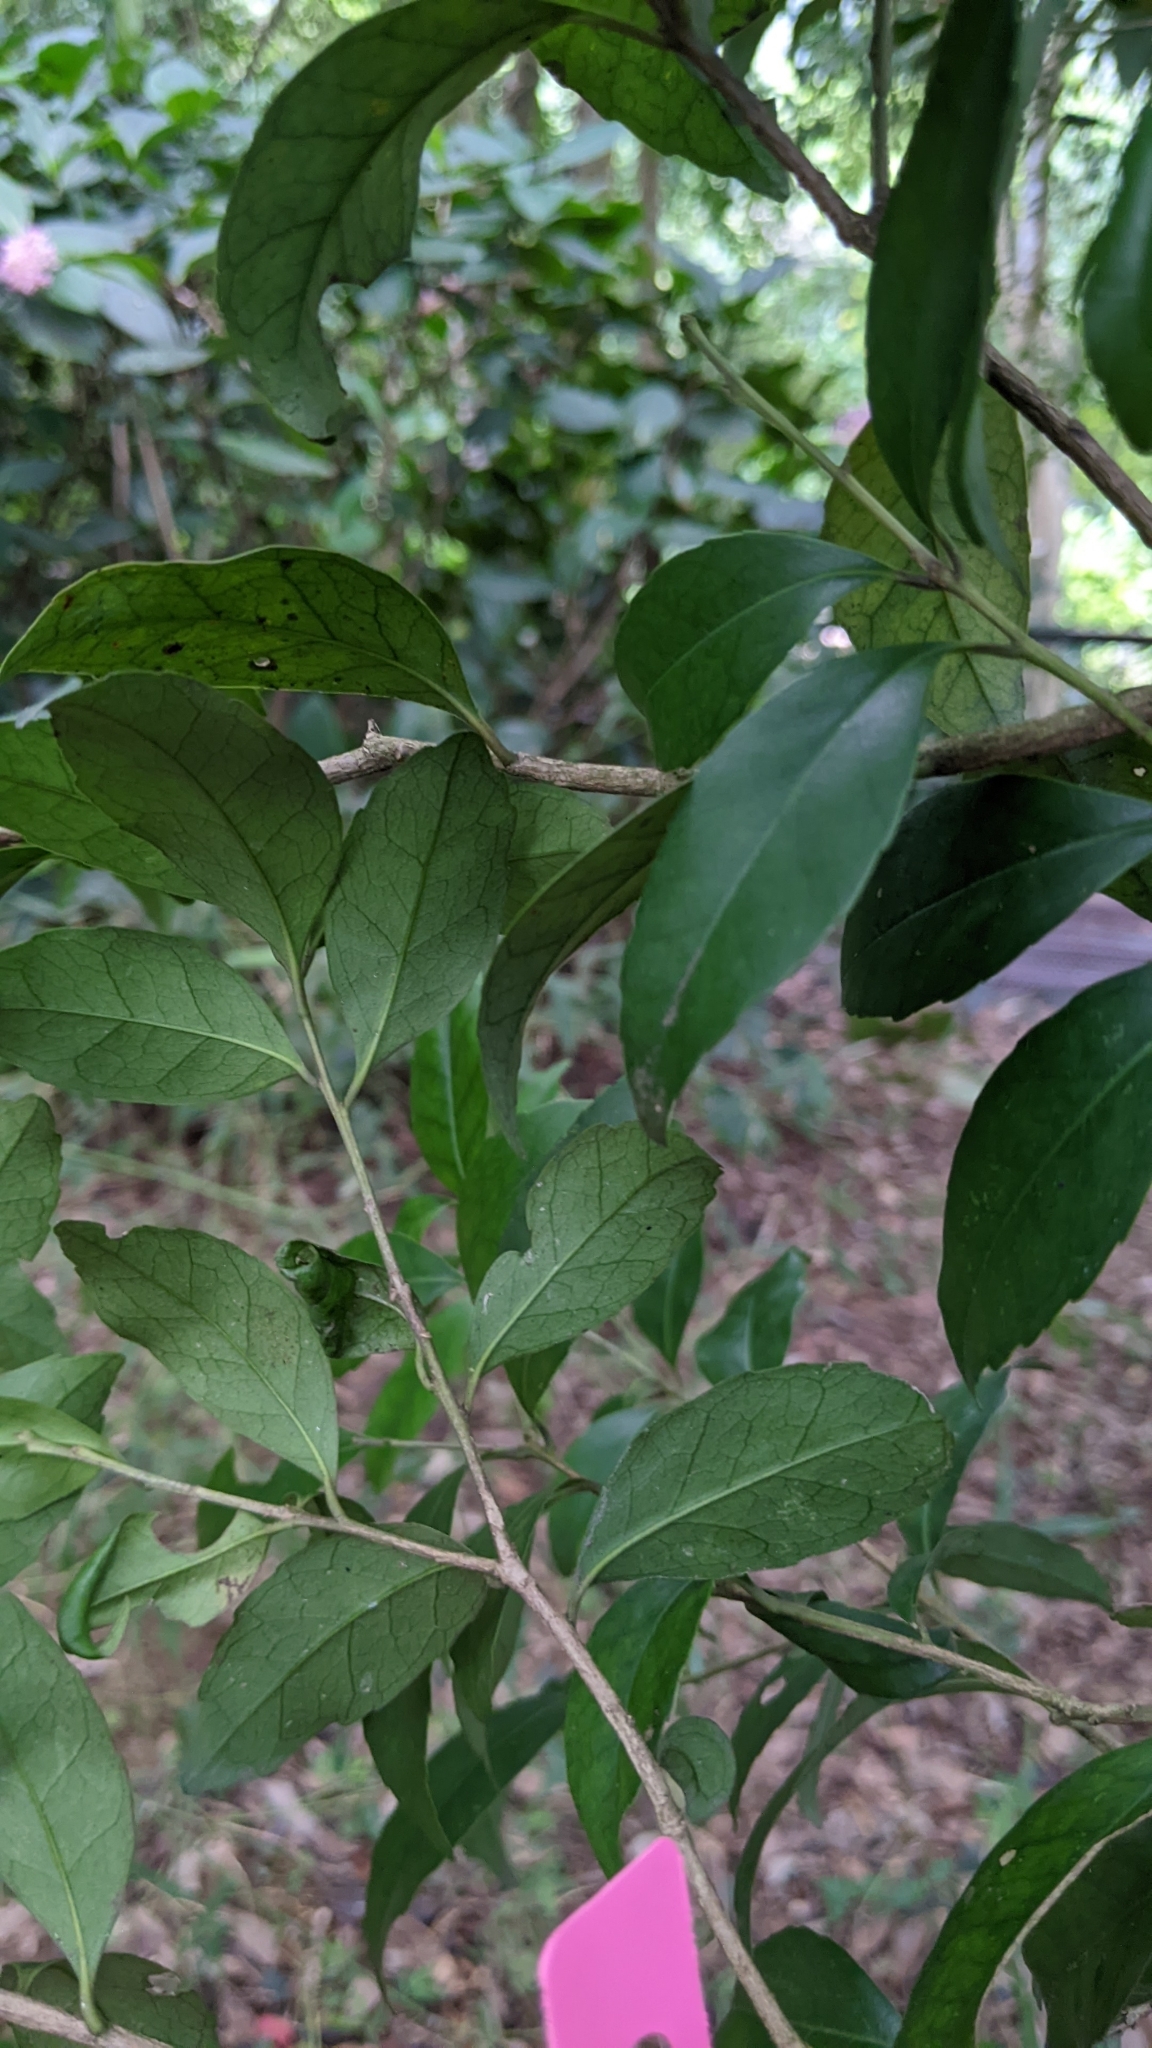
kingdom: Plantae
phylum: Tracheophyta
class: Magnoliopsida
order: Aquifoliales
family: Aquifoliaceae
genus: Ilex
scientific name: Ilex uraiensis
